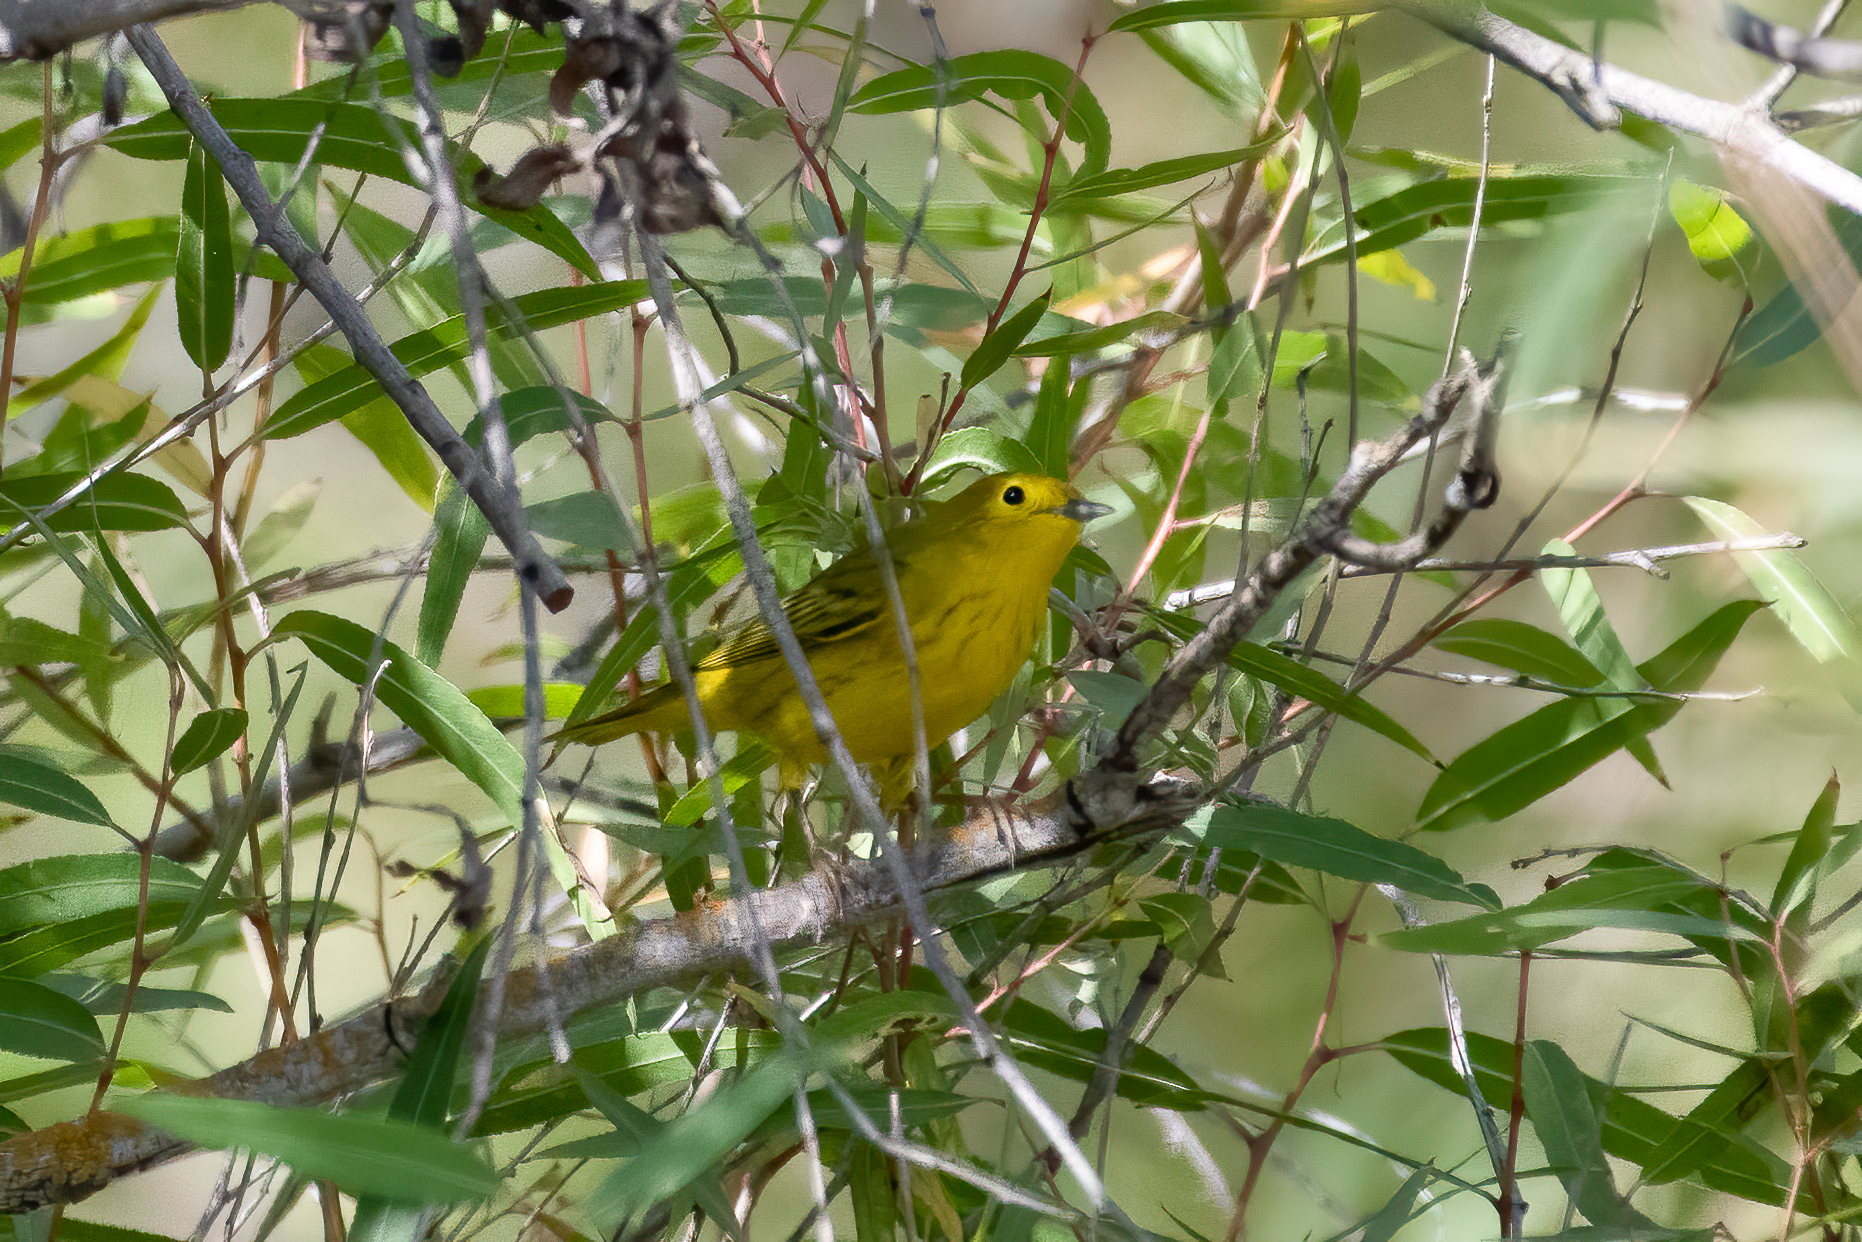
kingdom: Animalia
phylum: Chordata
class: Aves
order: Passeriformes
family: Parulidae
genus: Setophaga
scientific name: Setophaga petechia
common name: Yellow warbler
